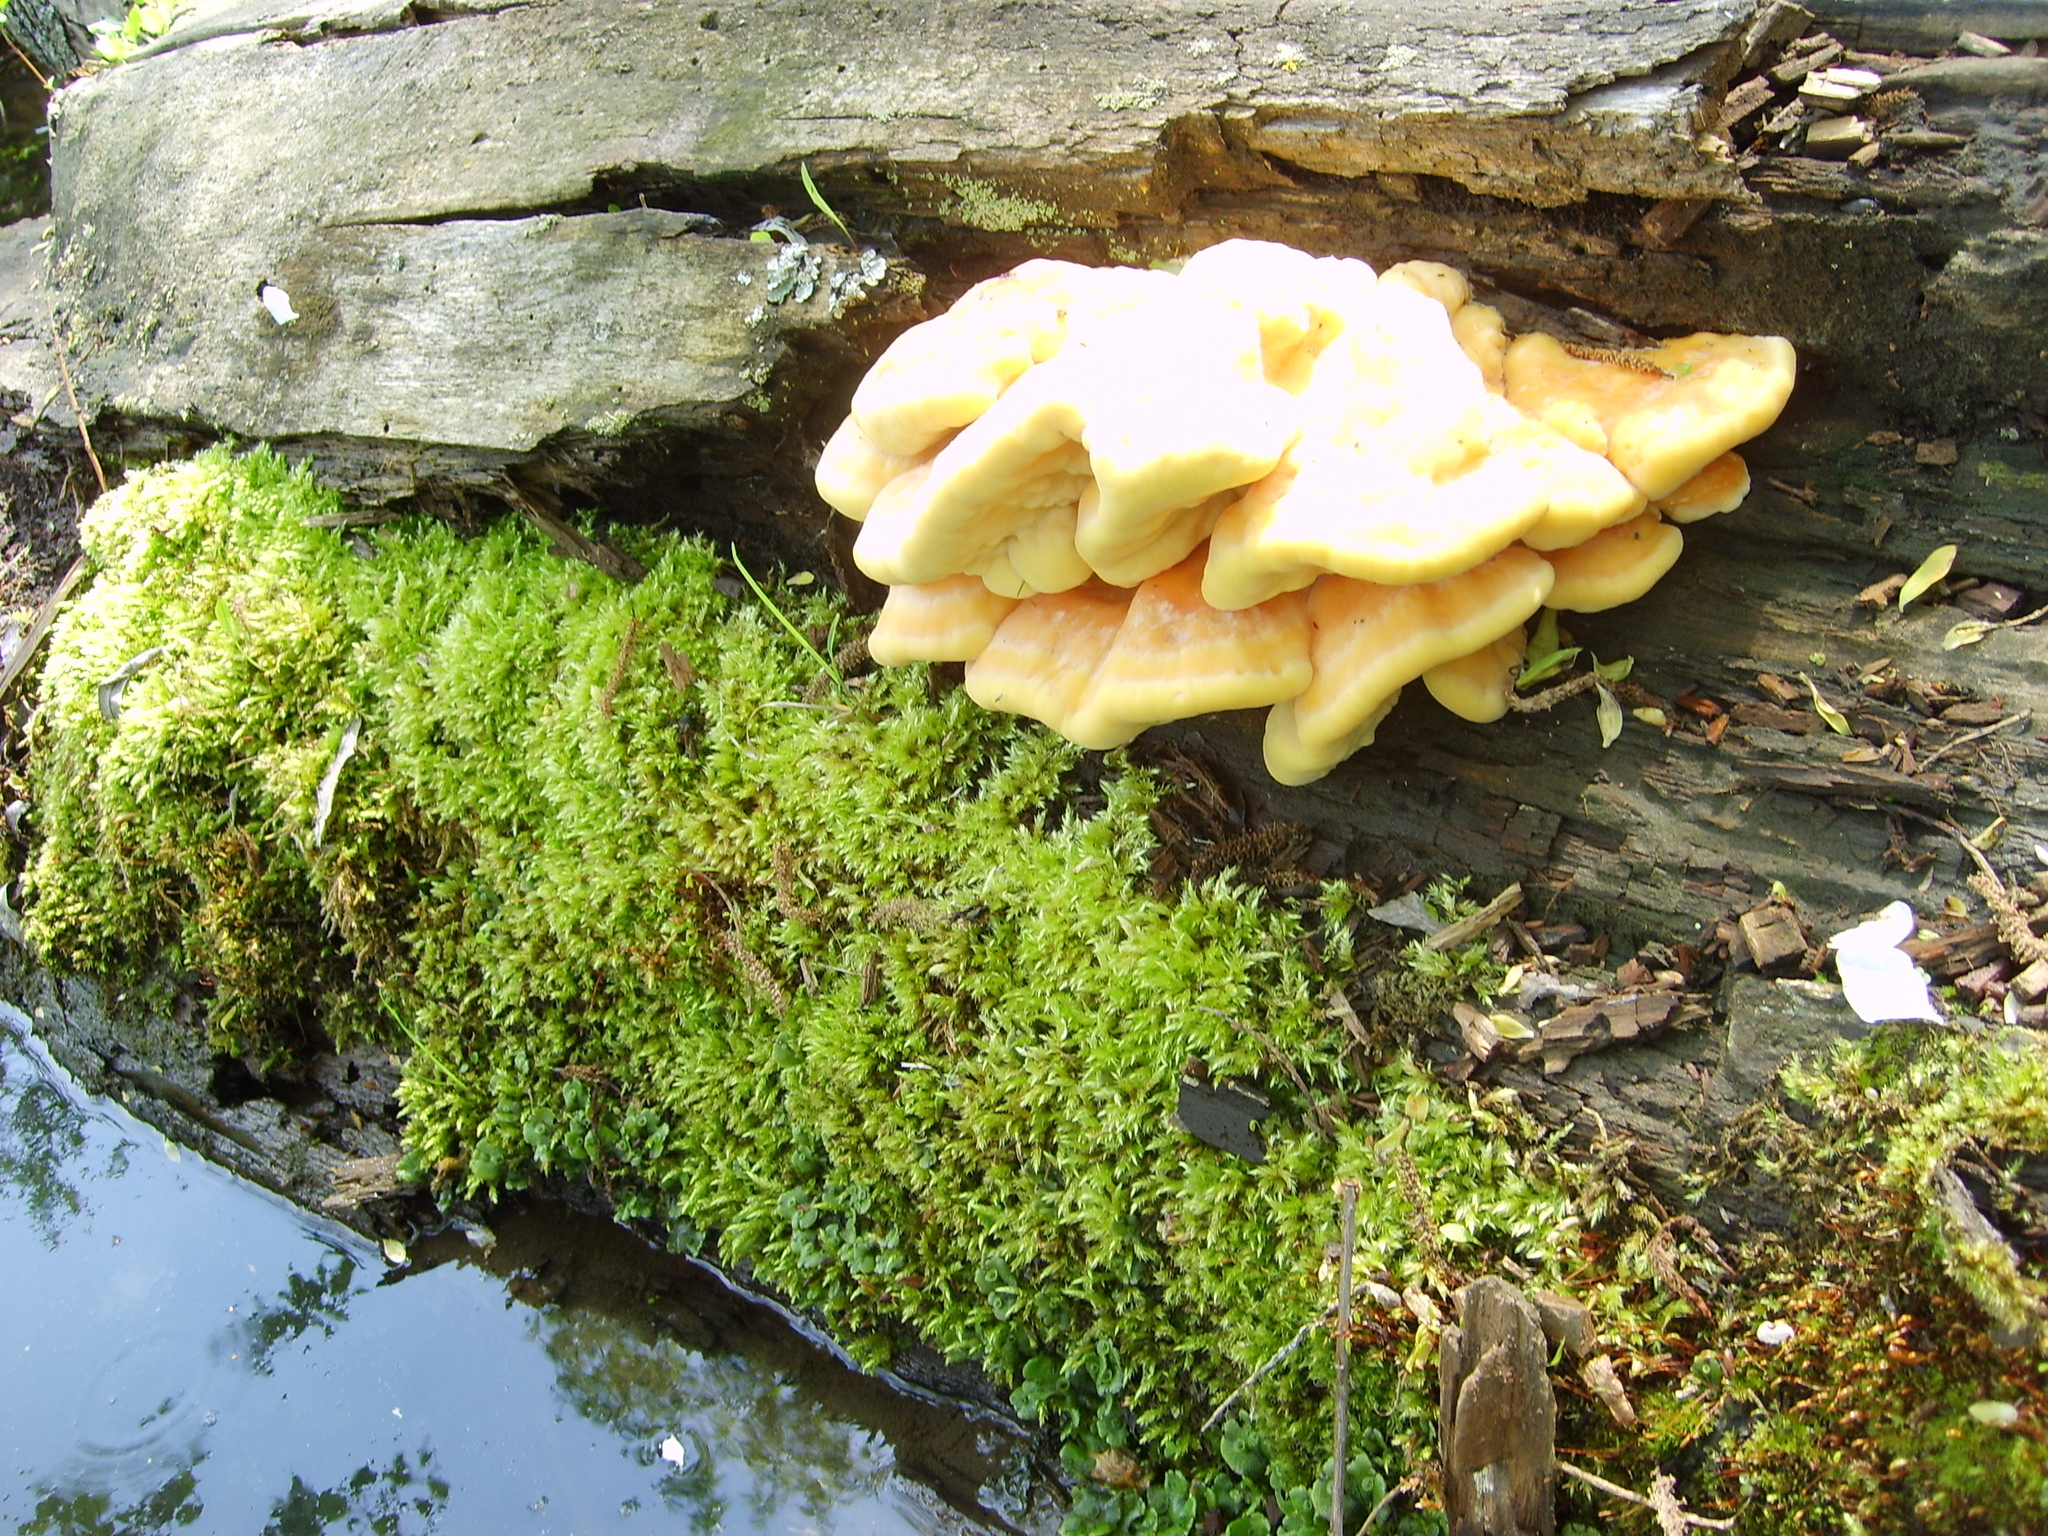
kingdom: Fungi
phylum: Basidiomycota
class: Agaricomycetes
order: Polyporales
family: Laetiporaceae
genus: Laetiporus
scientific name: Laetiporus sulphureus
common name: Chicken of the woods
